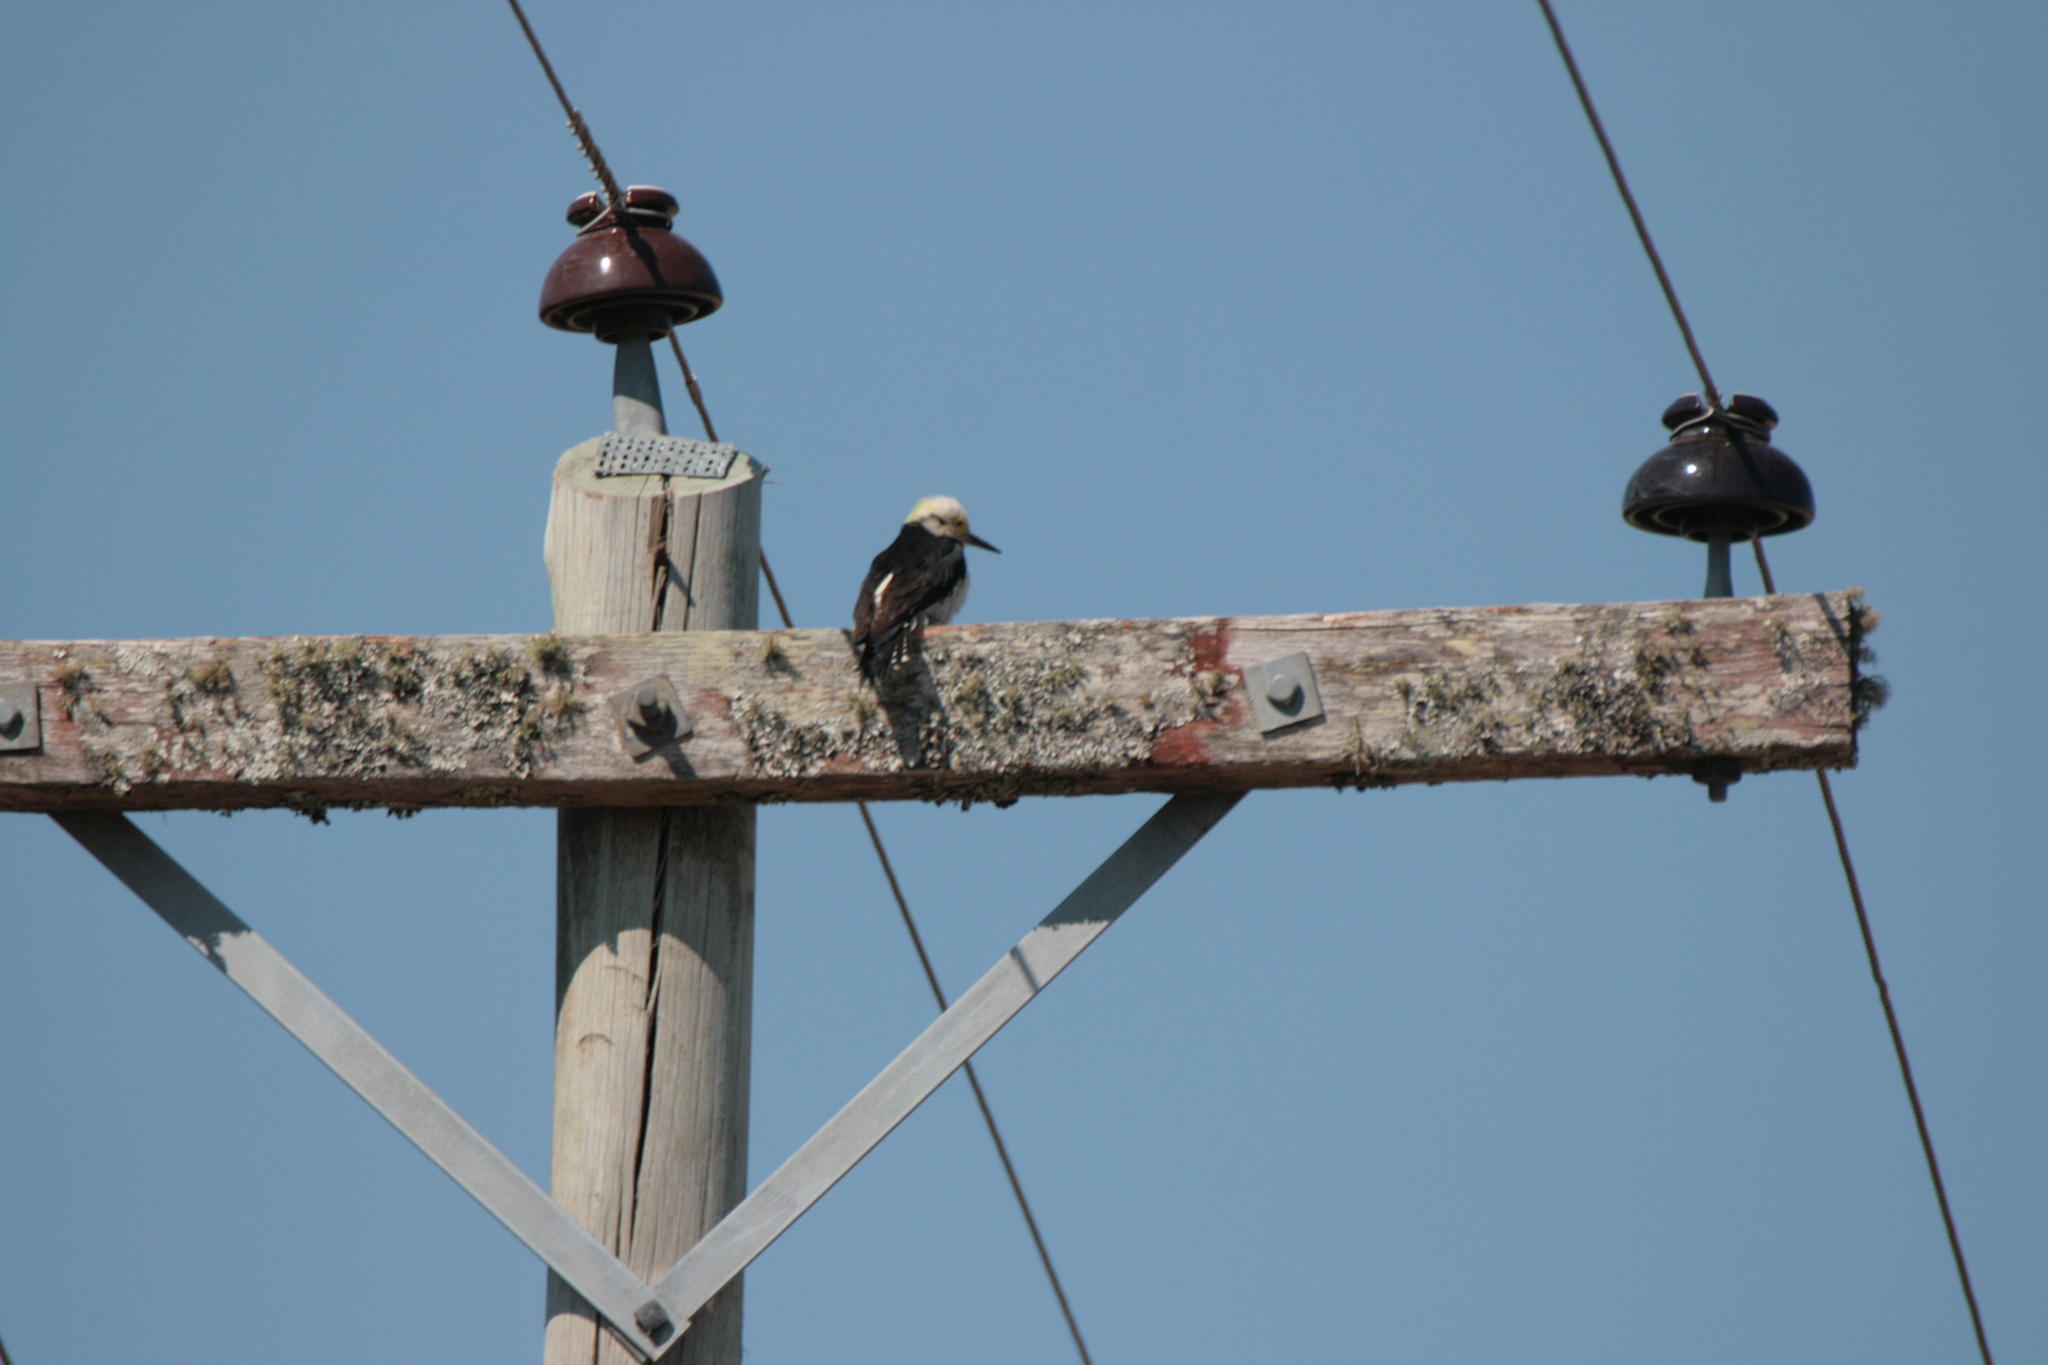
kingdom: Animalia
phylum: Chordata
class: Aves
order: Piciformes
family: Picidae
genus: Melanerpes
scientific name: Melanerpes candidus
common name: White woodpecker
